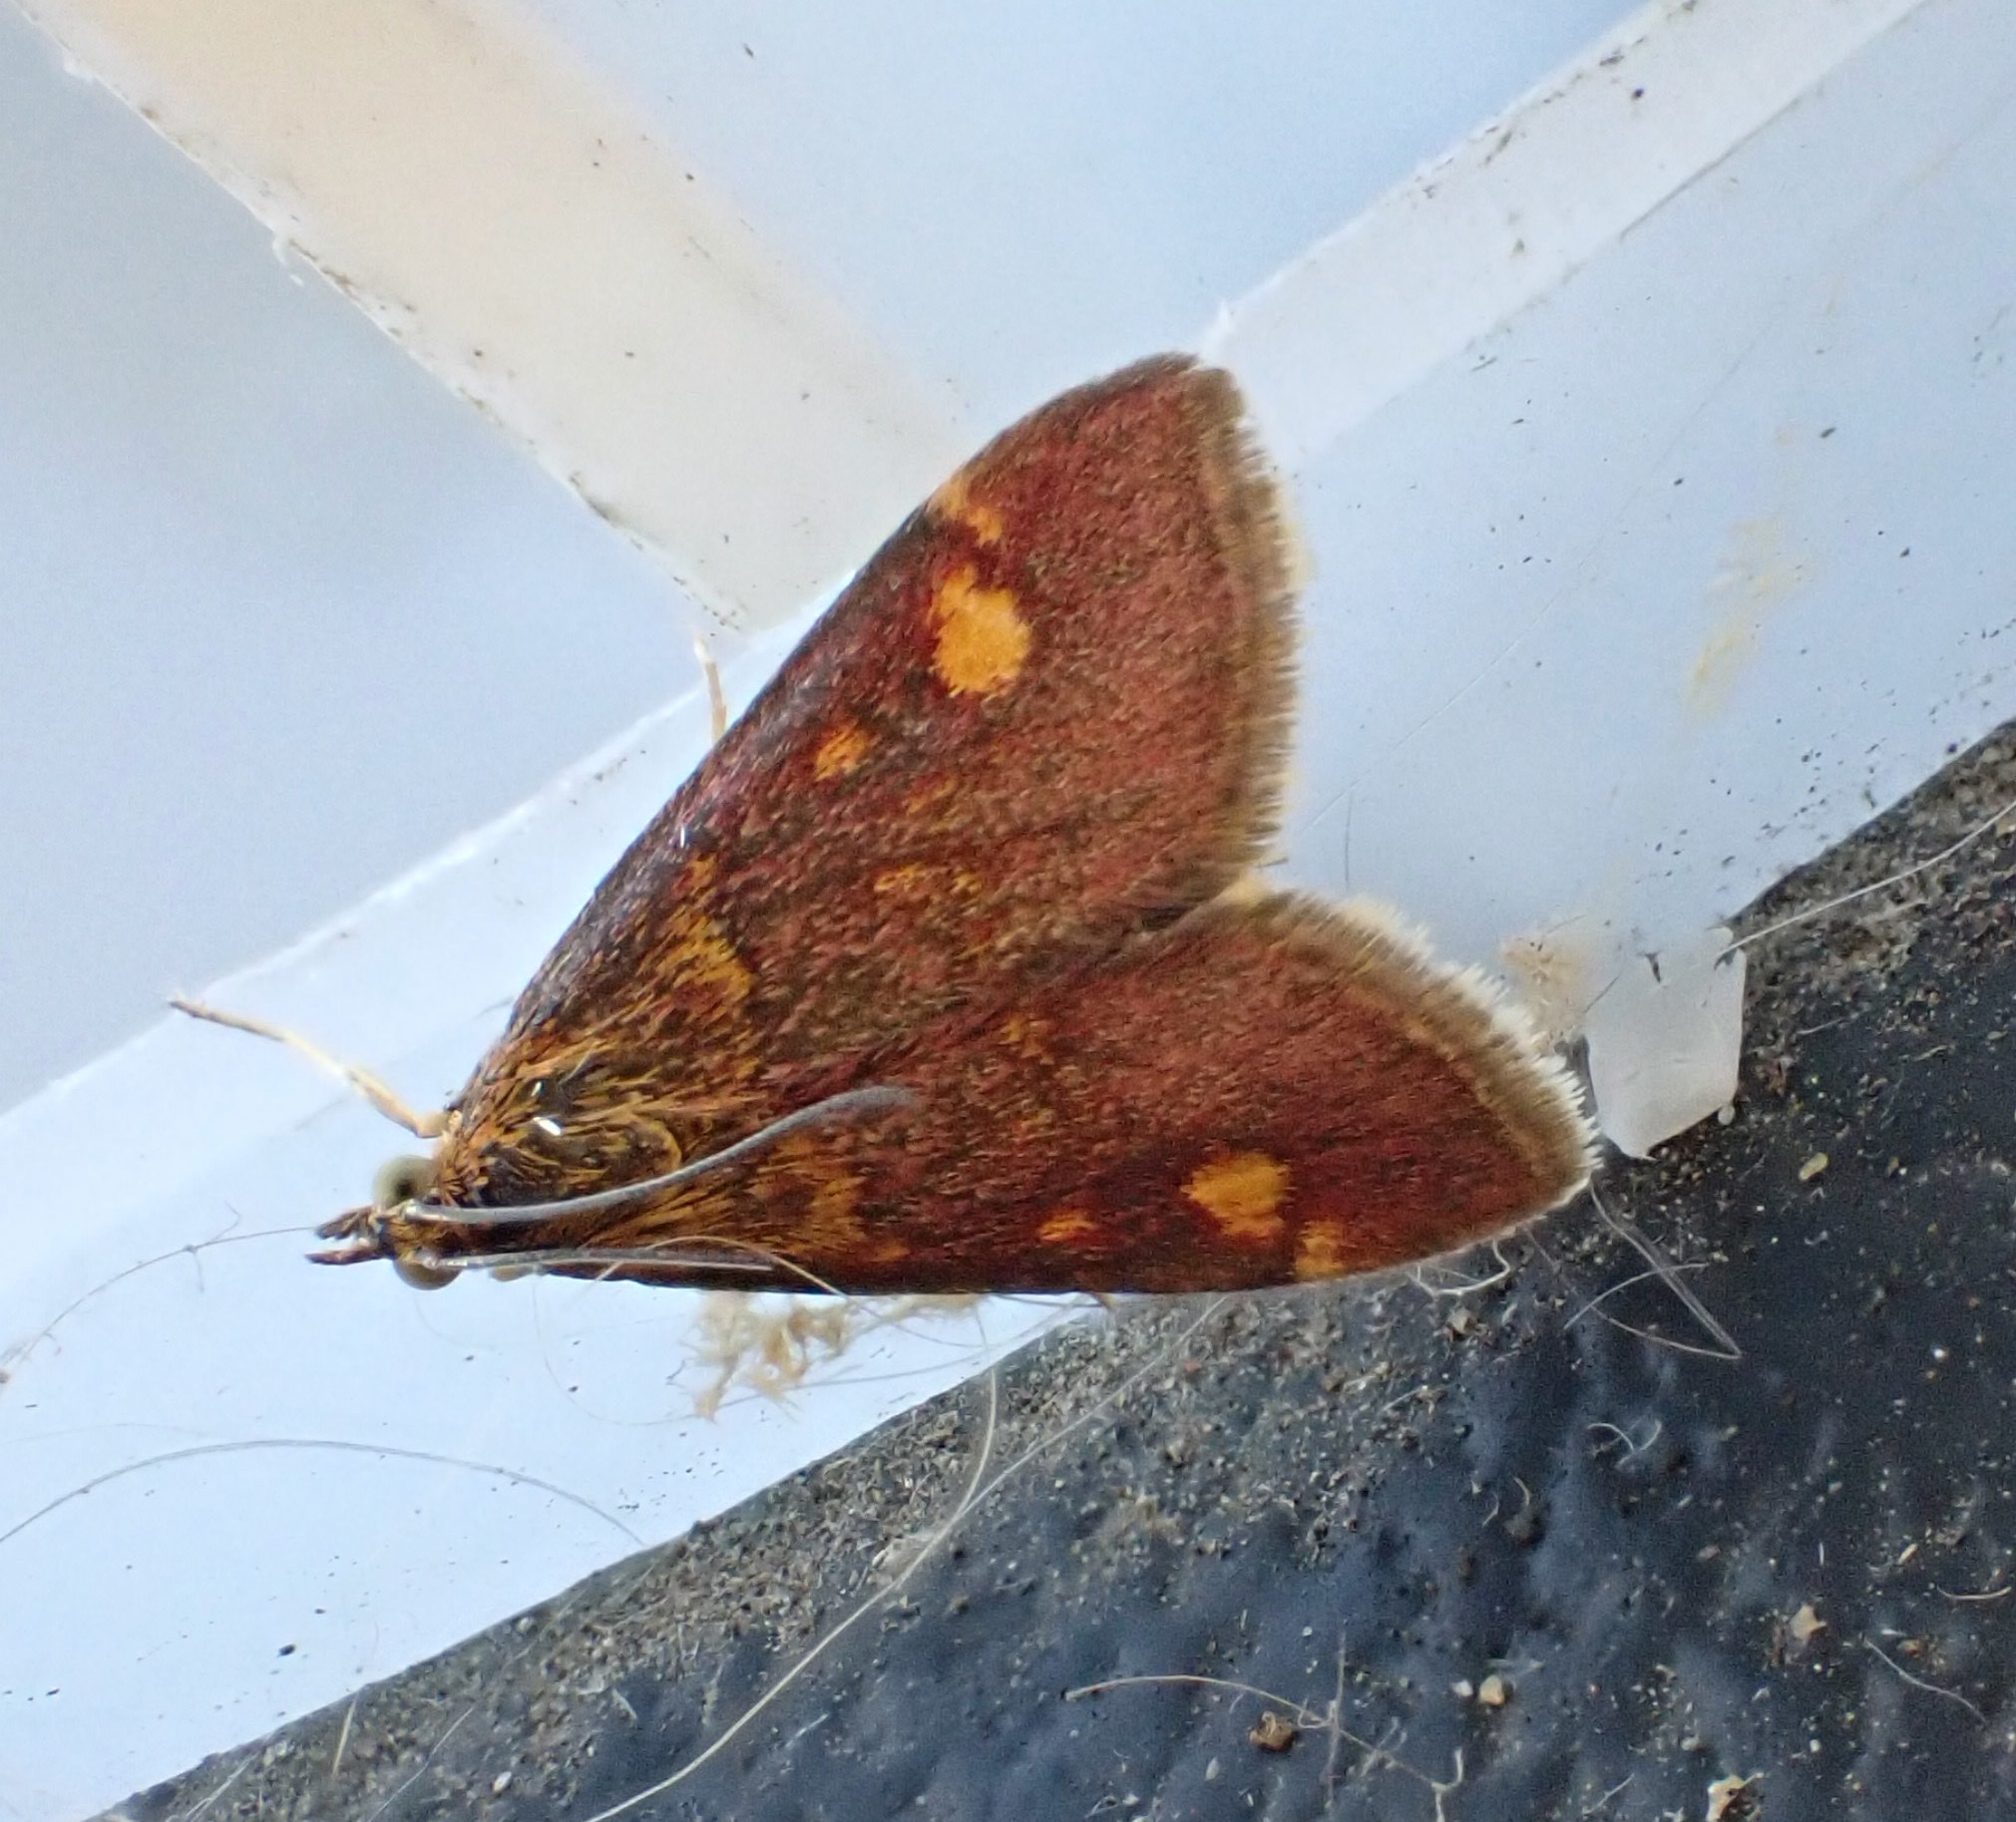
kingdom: Animalia
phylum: Arthropoda
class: Insecta
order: Lepidoptera
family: Crambidae
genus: Pyrausta
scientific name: Pyrausta aurata
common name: Small purple & gold
